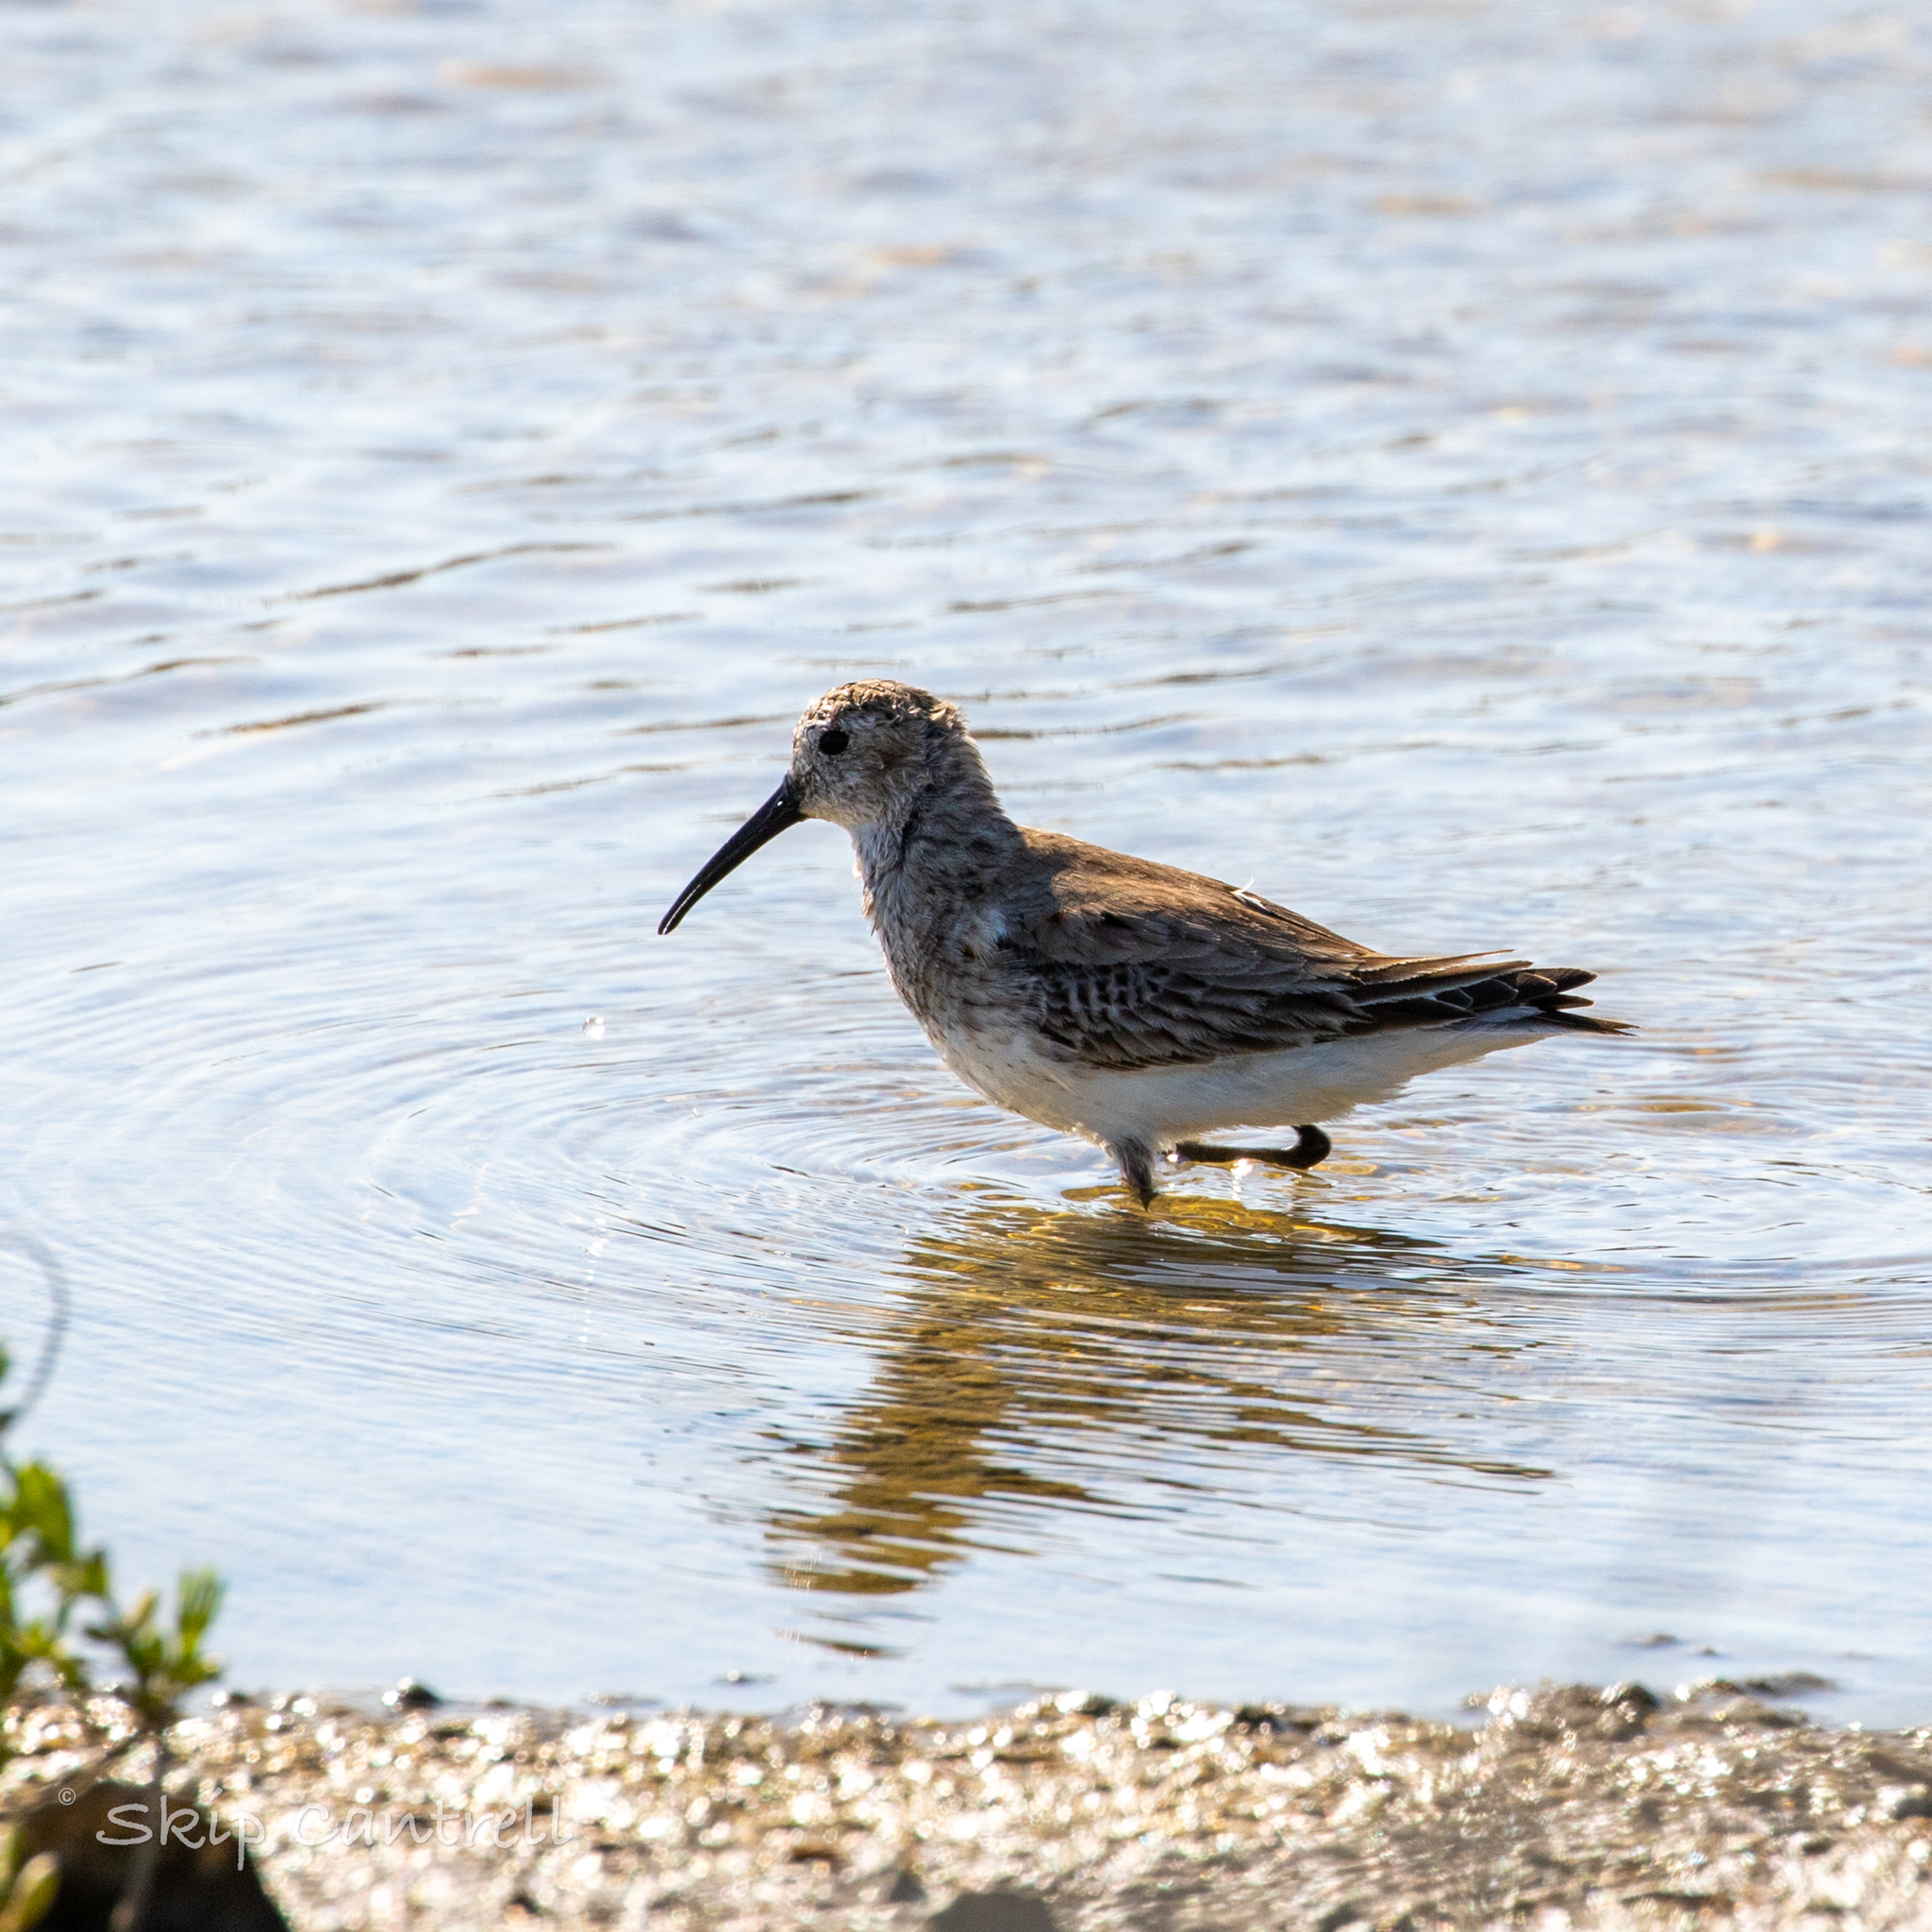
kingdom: Animalia
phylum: Chordata
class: Aves
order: Charadriiformes
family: Scolopacidae
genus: Calidris
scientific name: Calidris alpina
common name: Dunlin
